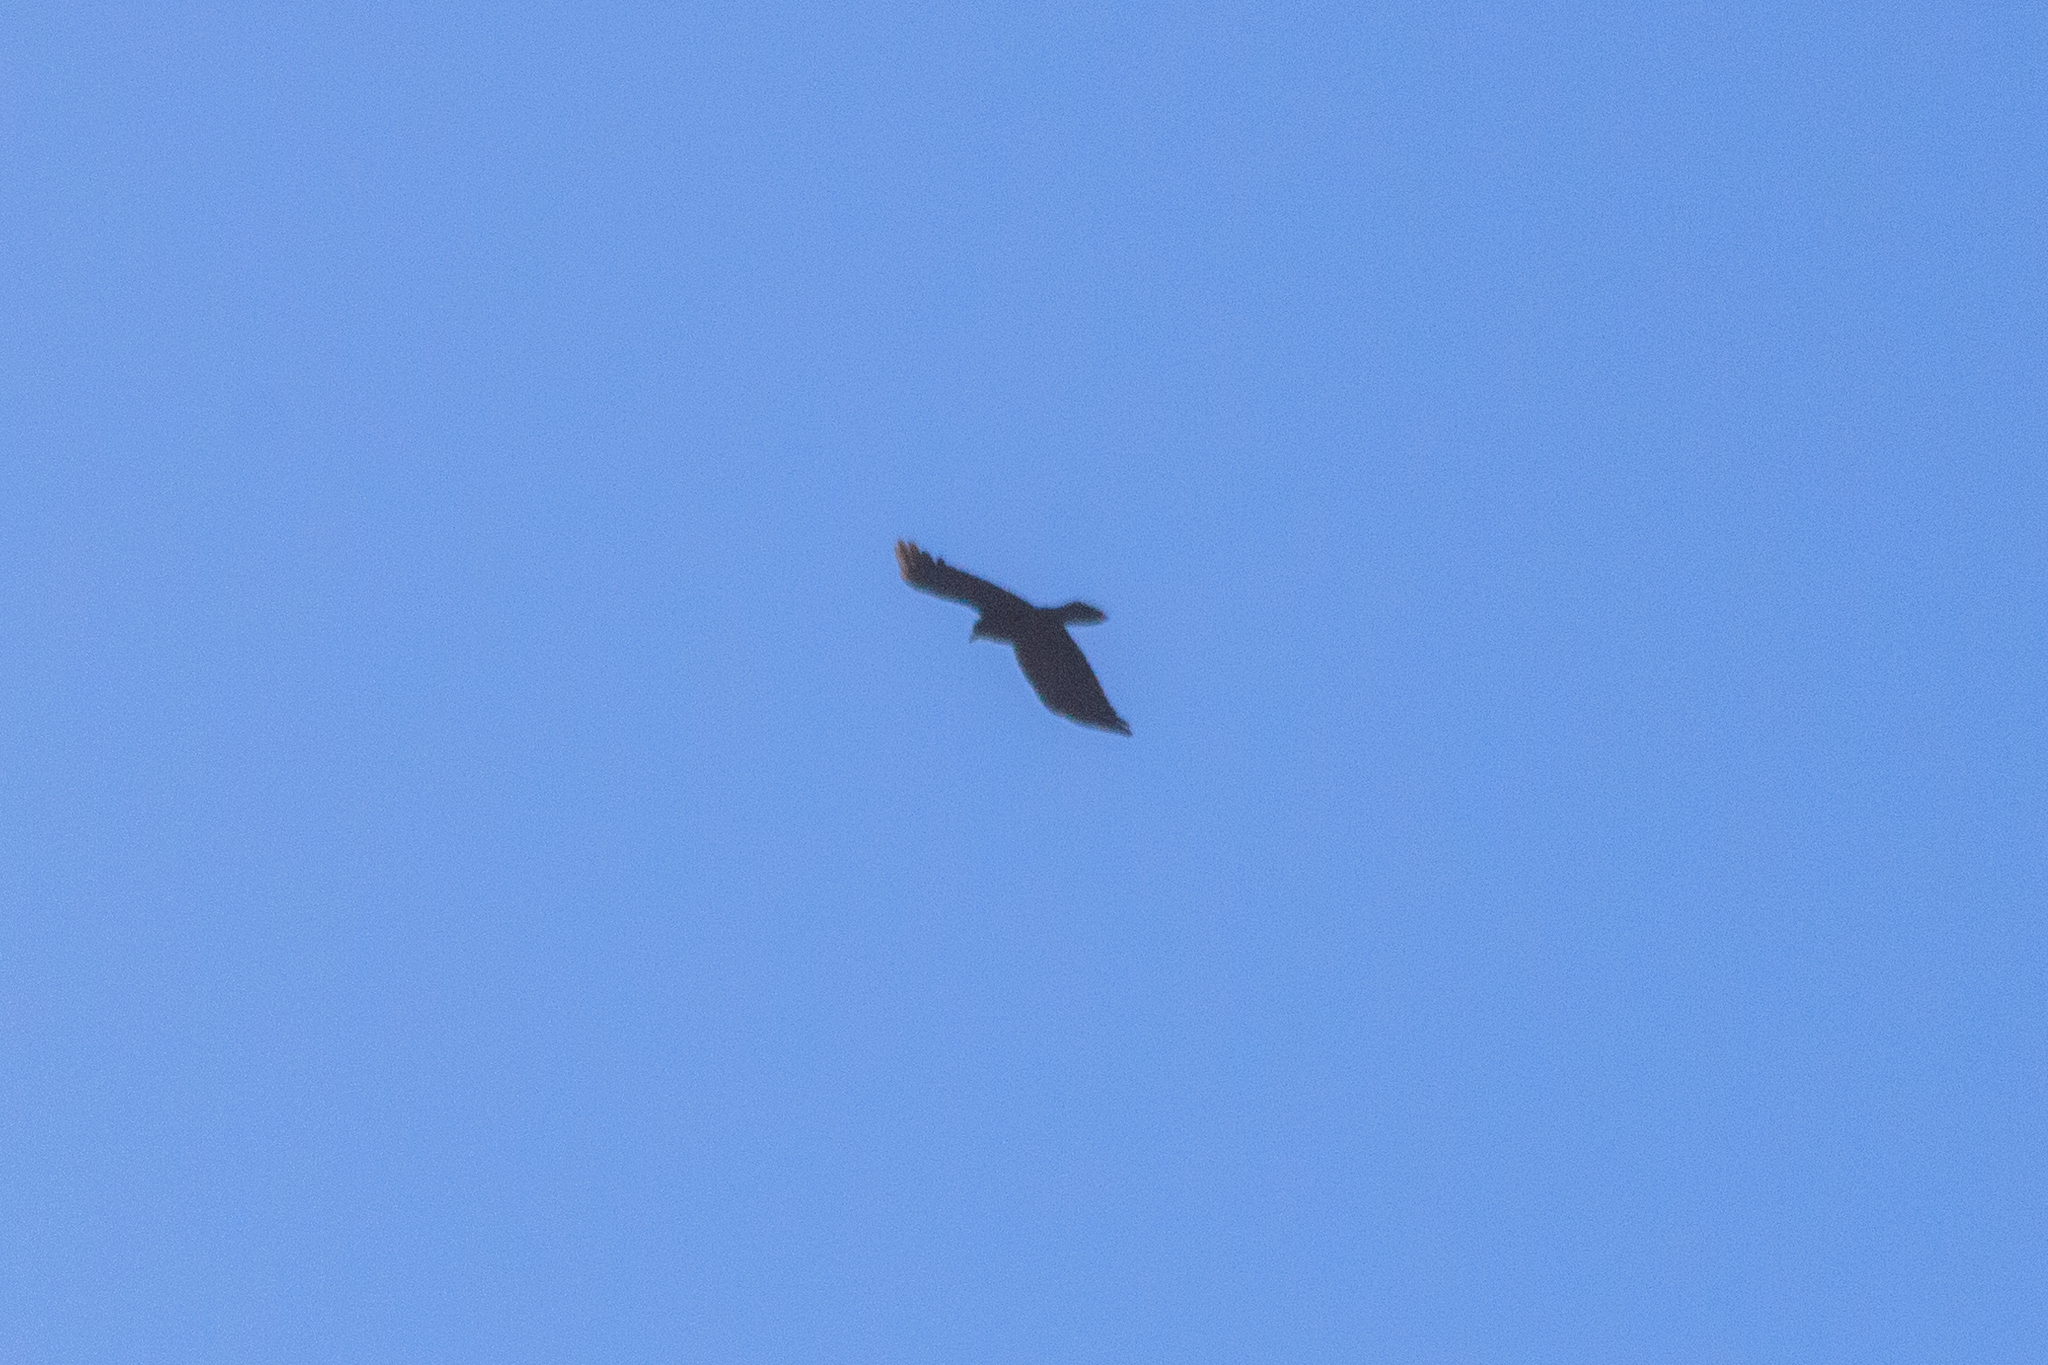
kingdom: Animalia
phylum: Chordata
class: Aves
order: Passeriformes
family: Corvidae
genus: Corvus
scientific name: Corvus corax
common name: Common raven
